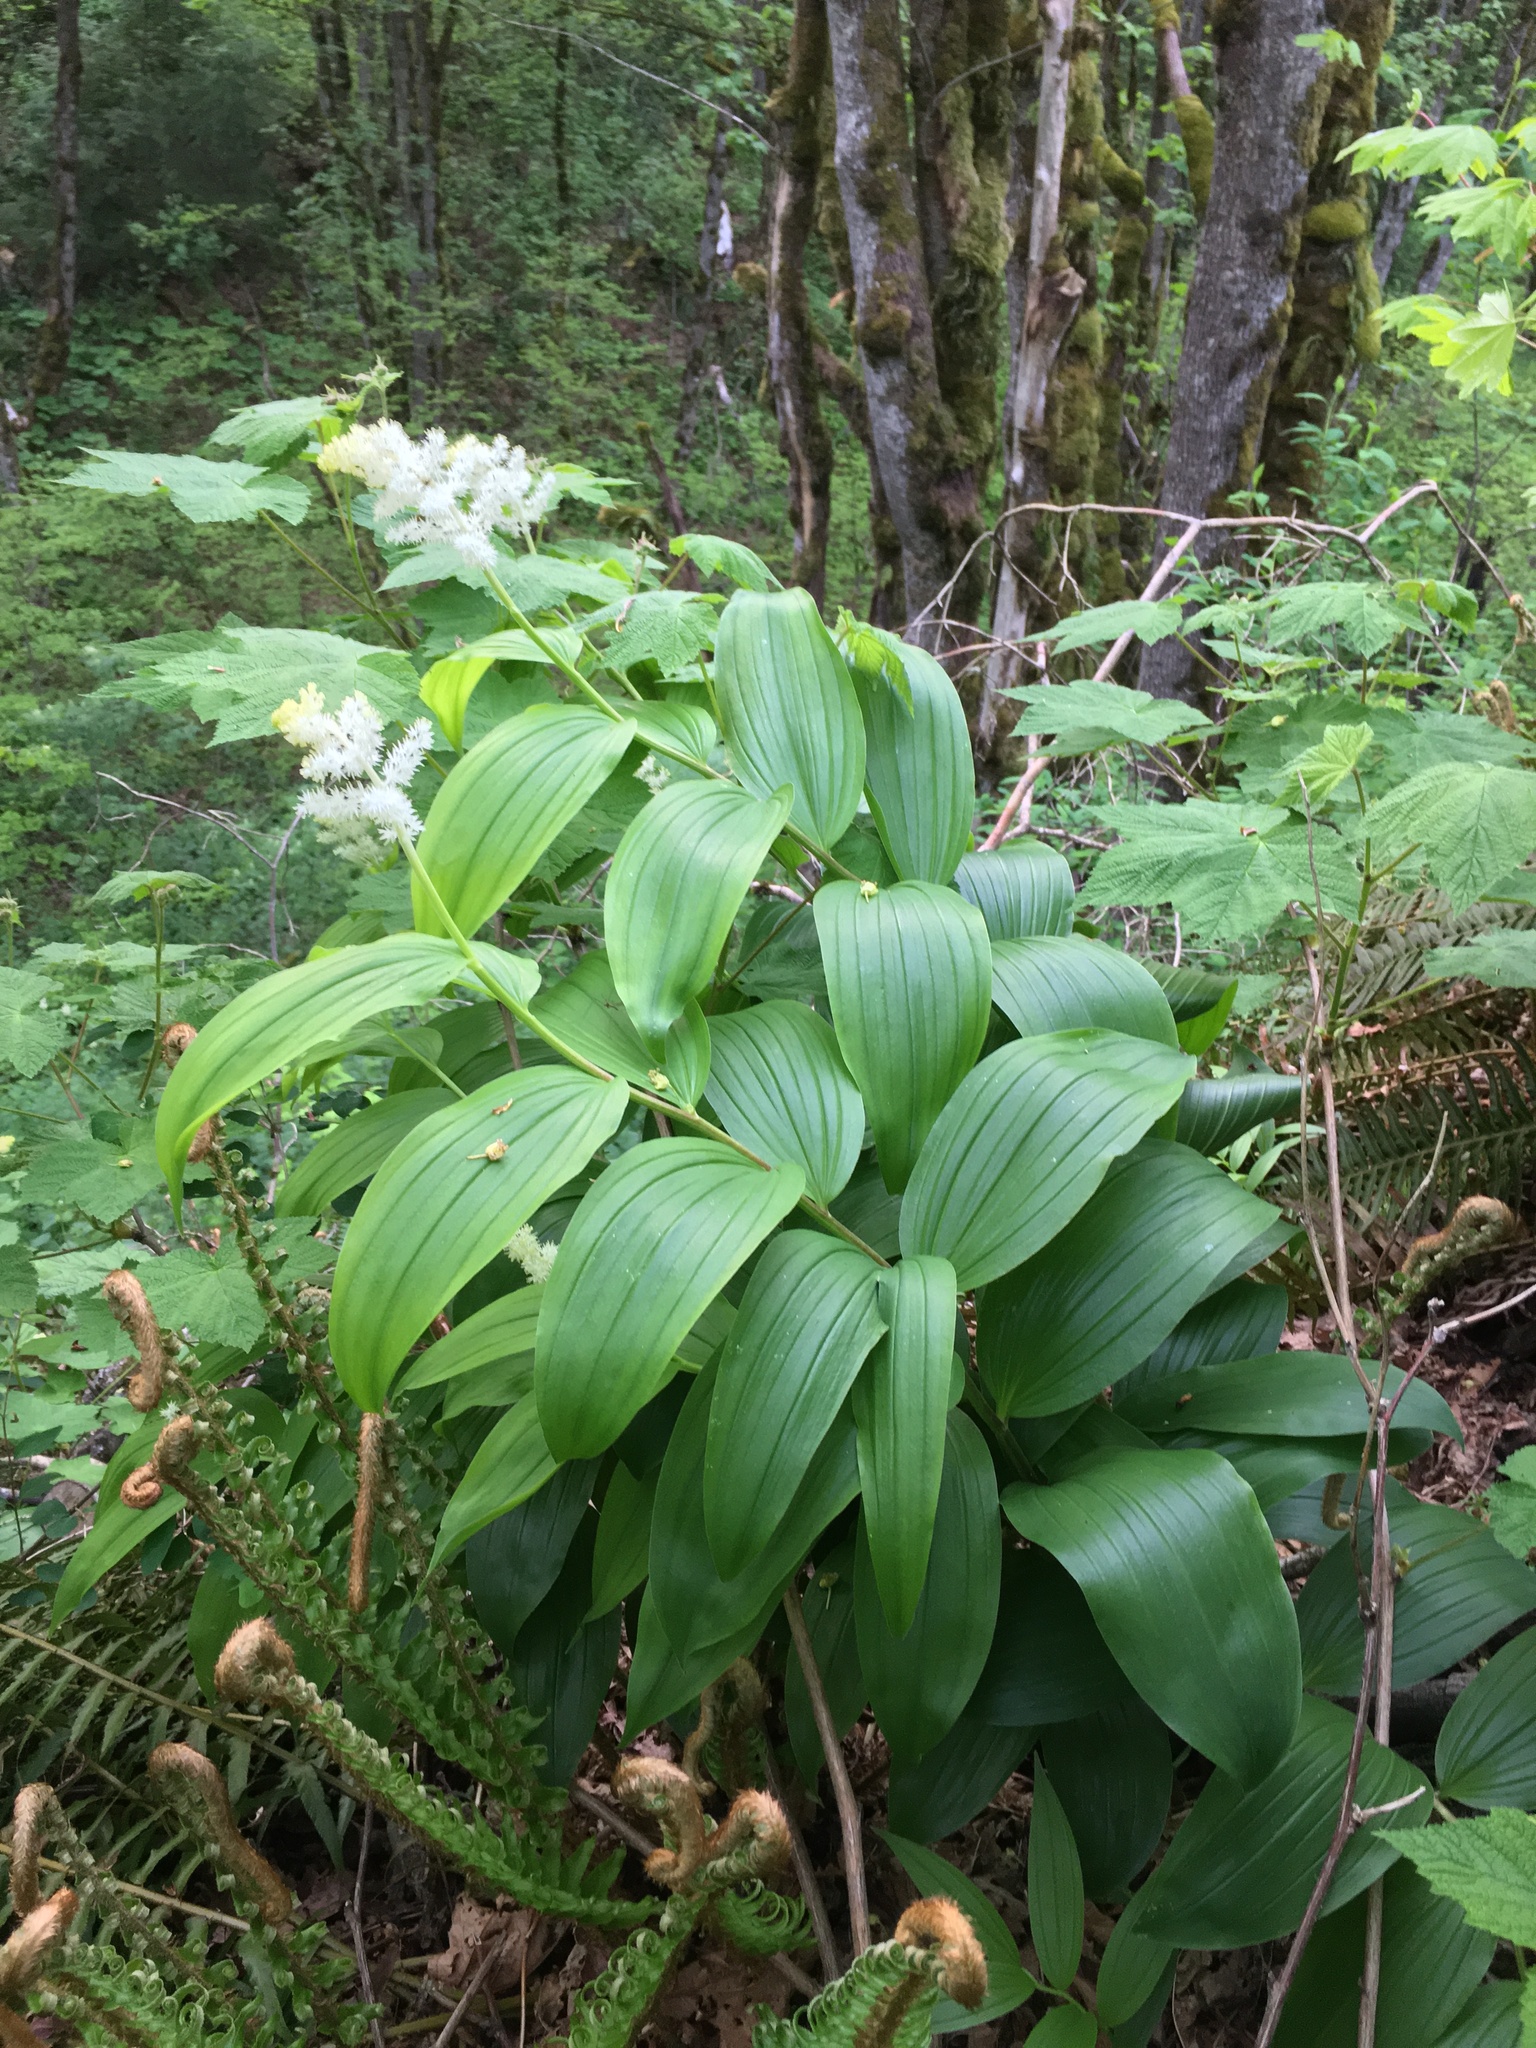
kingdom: Plantae
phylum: Tracheophyta
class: Liliopsida
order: Asparagales
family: Asparagaceae
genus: Maianthemum
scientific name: Maianthemum racemosum
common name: False spikenard
